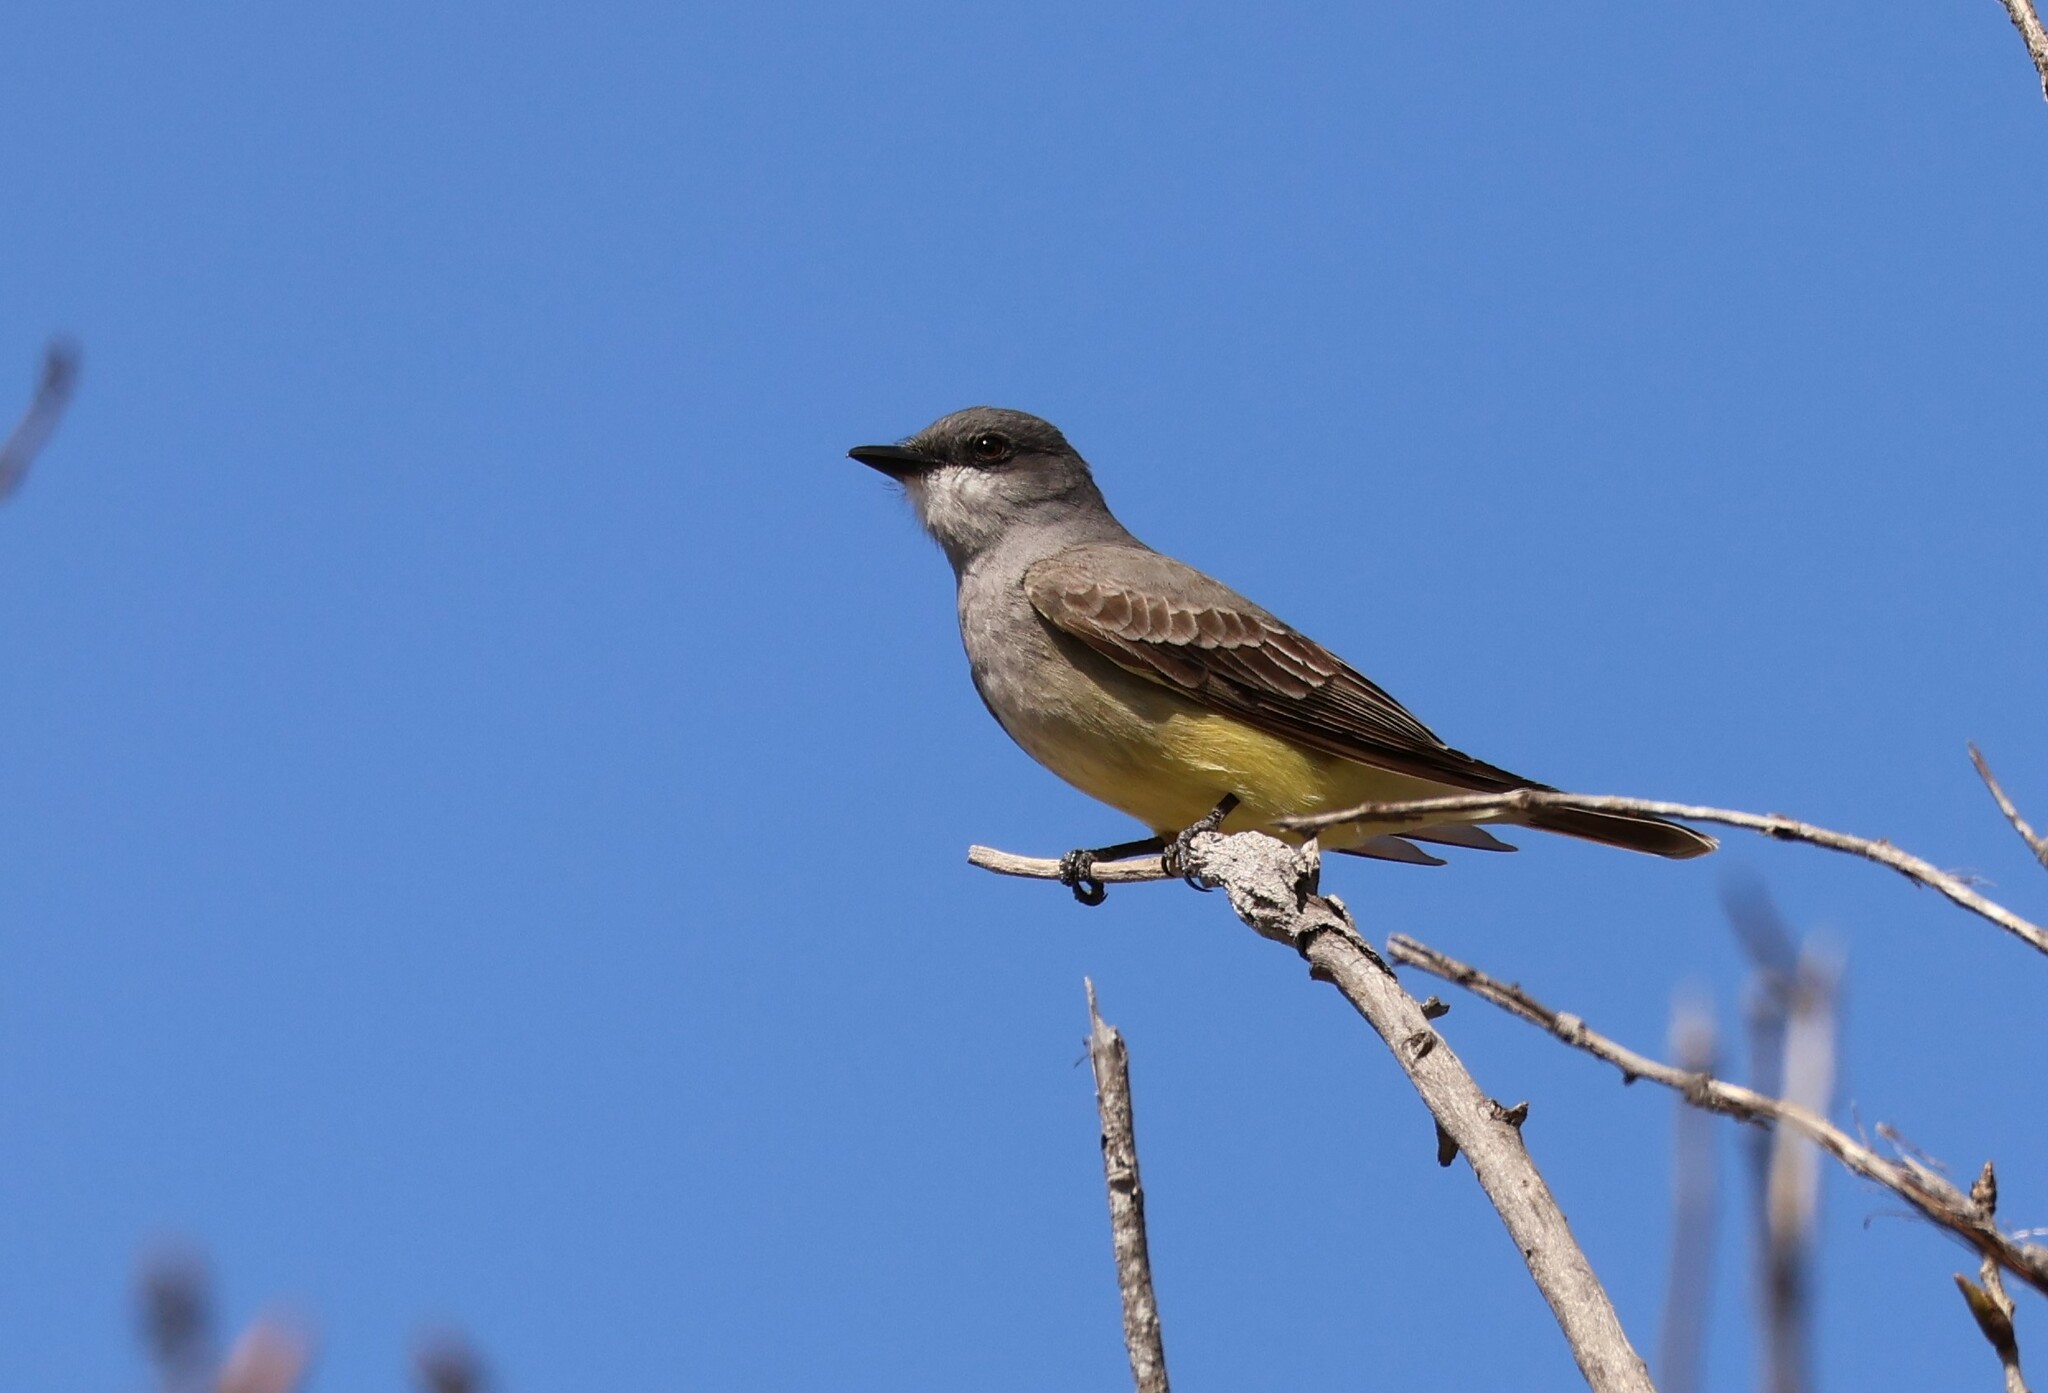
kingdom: Animalia
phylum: Chordata
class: Aves
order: Passeriformes
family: Tyrannidae
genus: Tyrannus
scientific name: Tyrannus vociferans
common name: Cassin's kingbird
